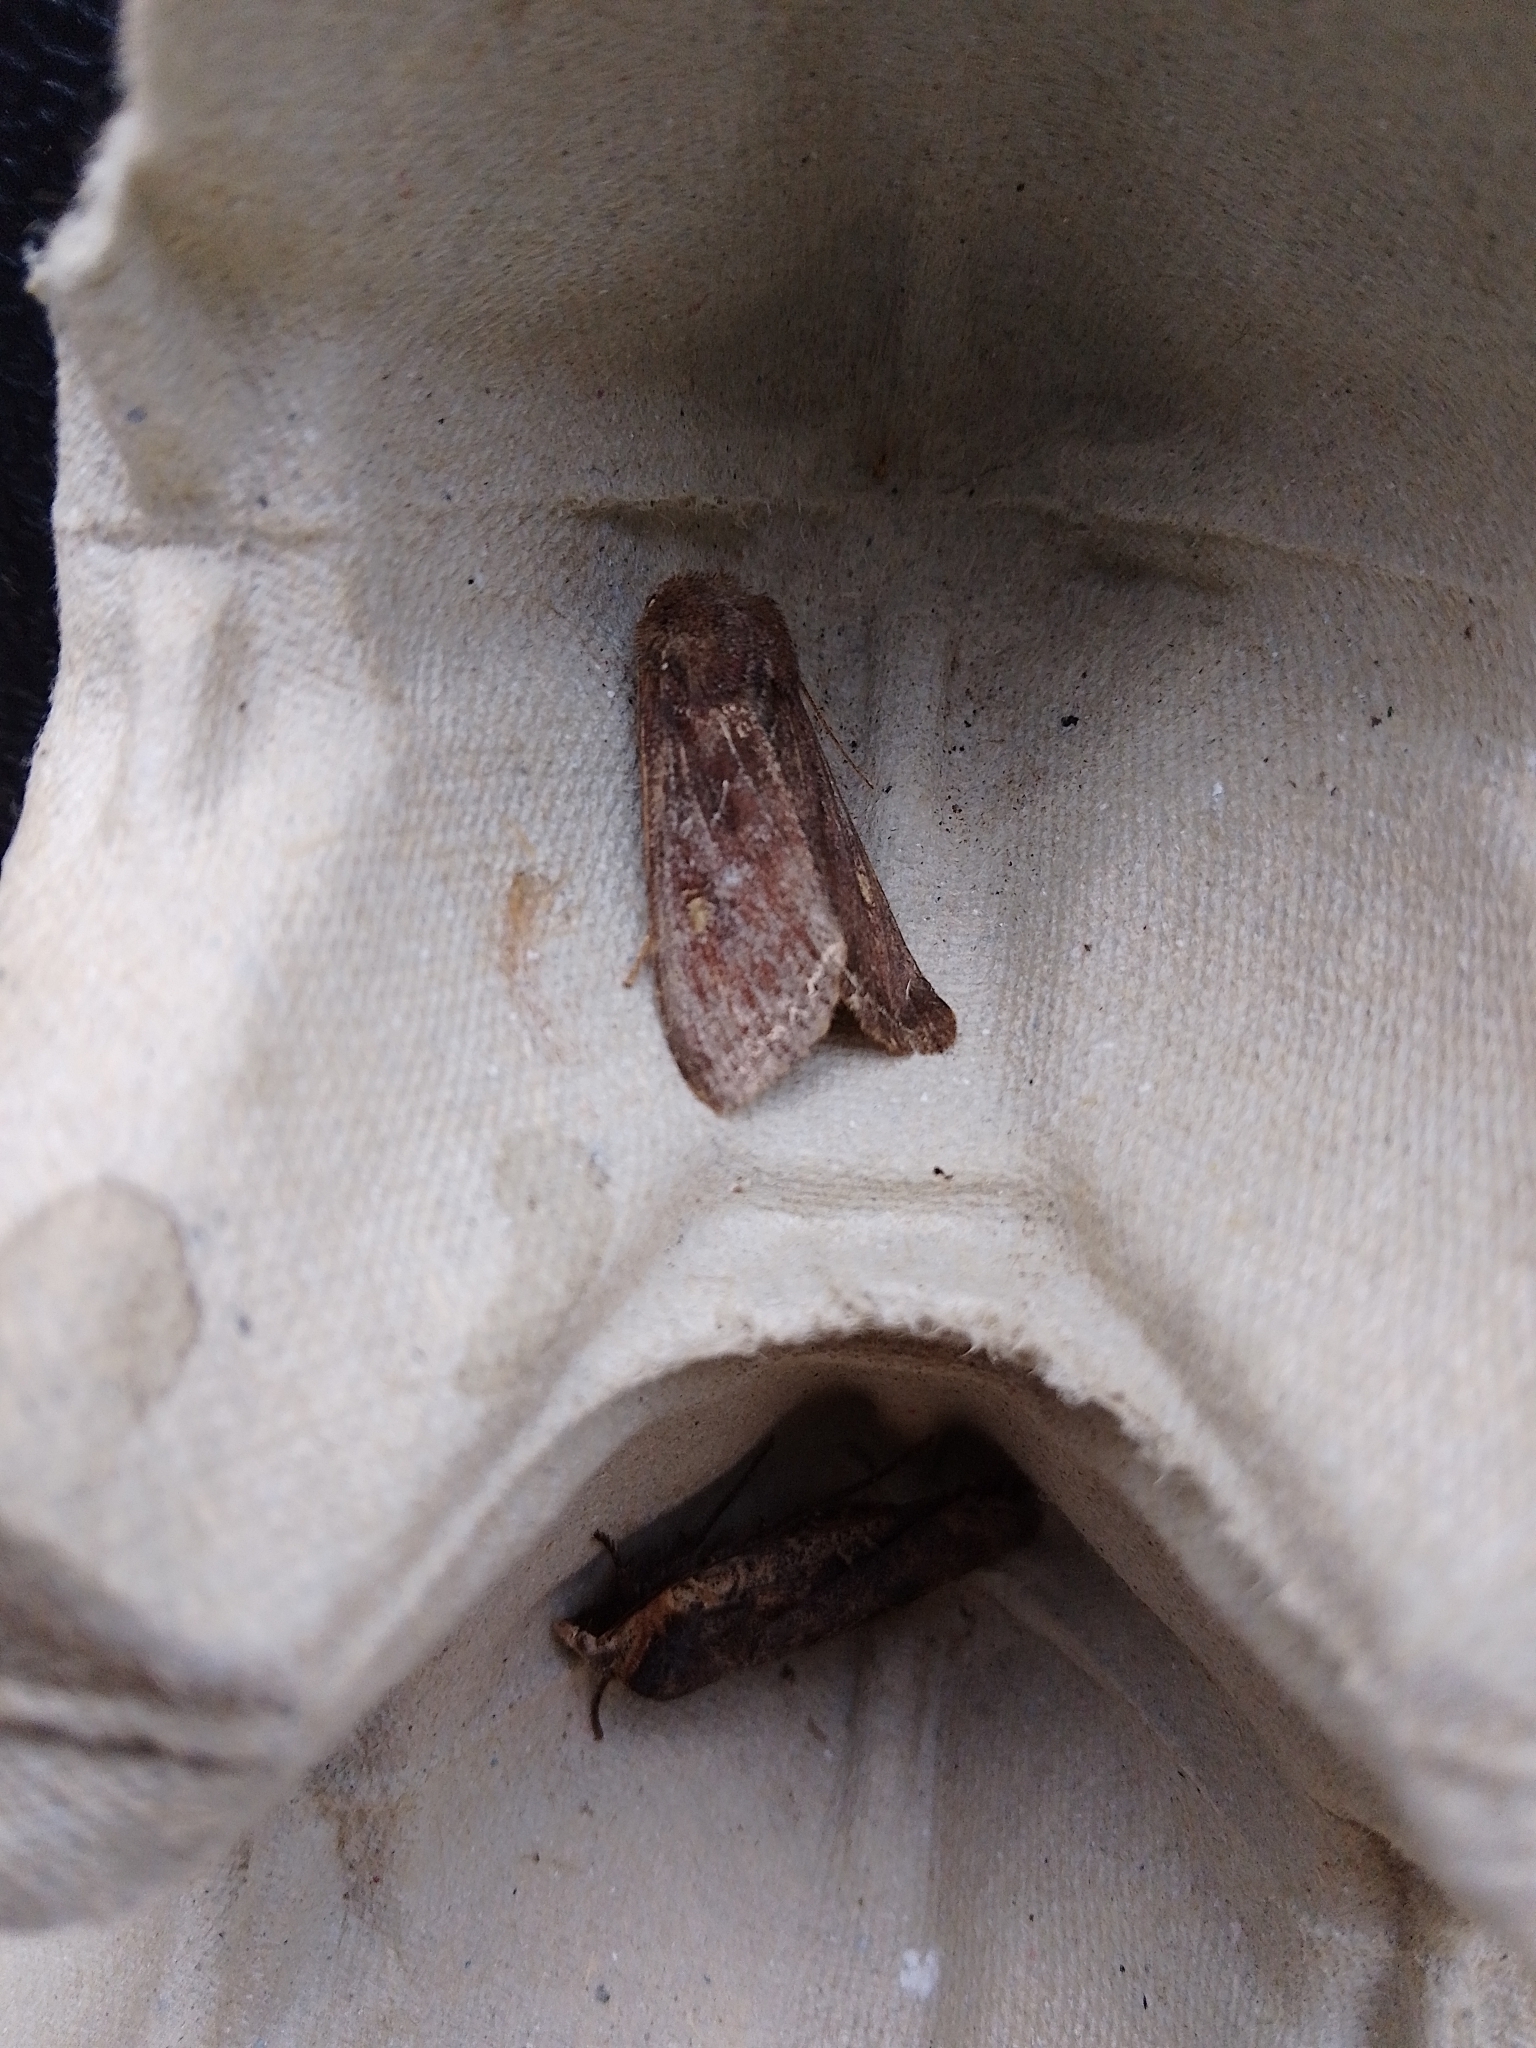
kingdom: Animalia
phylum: Arthropoda
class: Insecta
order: Lepidoptera
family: Noctuidae
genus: Lacanobia
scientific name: Lacanobia oleracea
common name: Bright-line brown-eye
